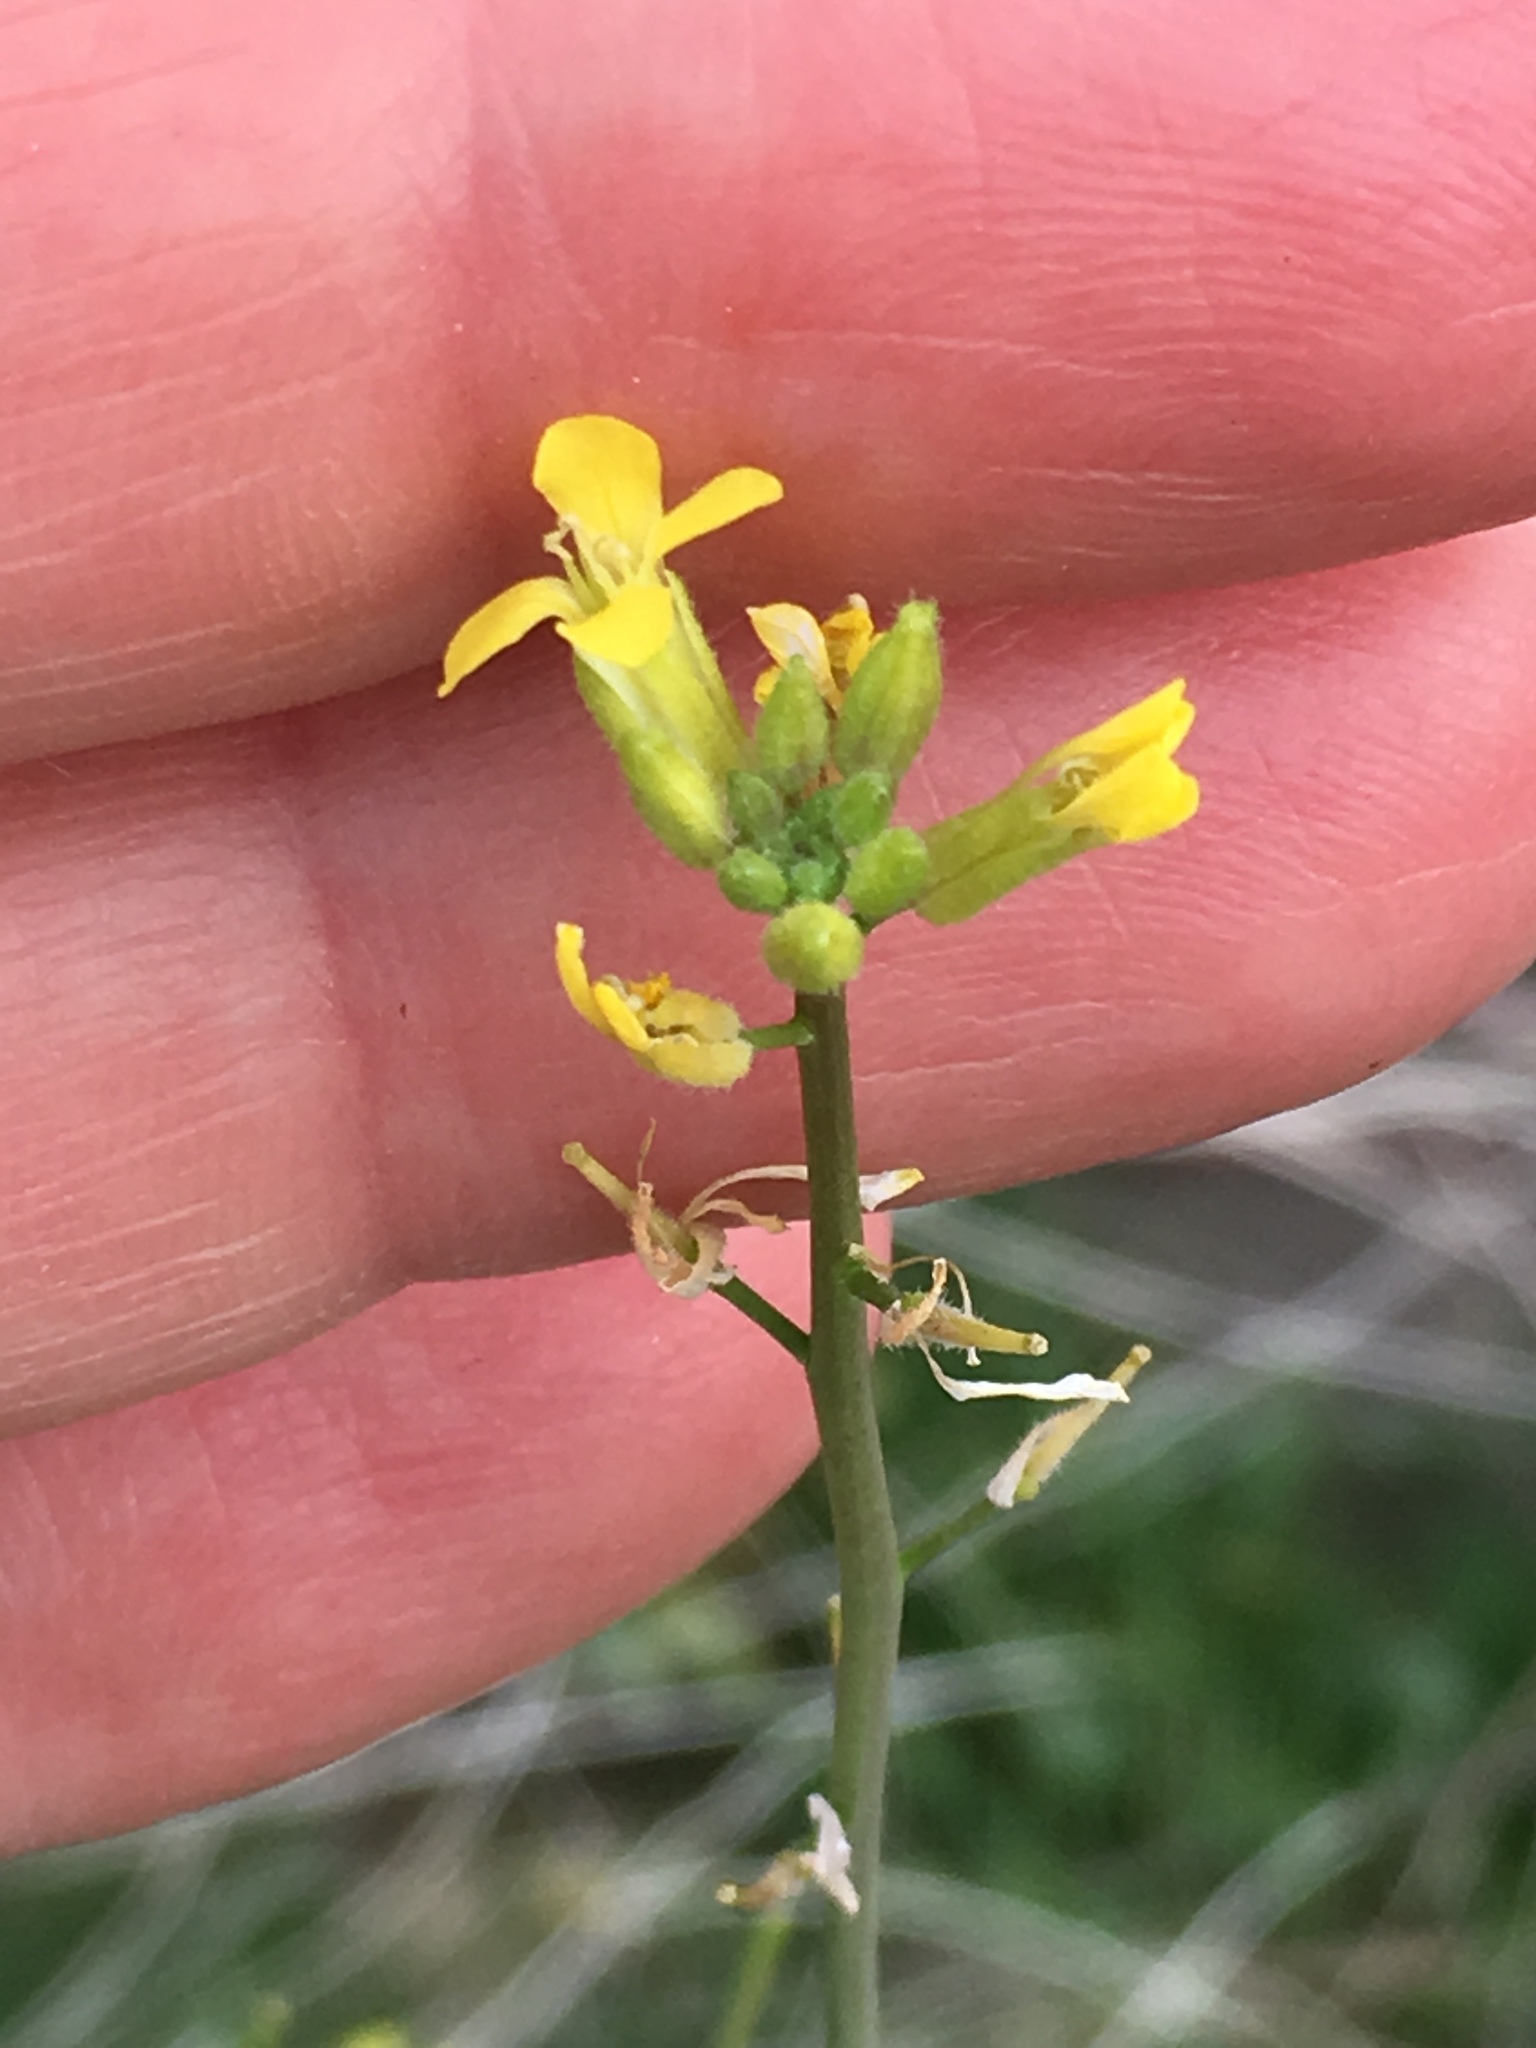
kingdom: Plantae
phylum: Tracheophyta
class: Magnoliopsida
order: Brassicales
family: Brassicaceae
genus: Sisymbrium
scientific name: Sisymbrium orientale
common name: Eastern rocket
